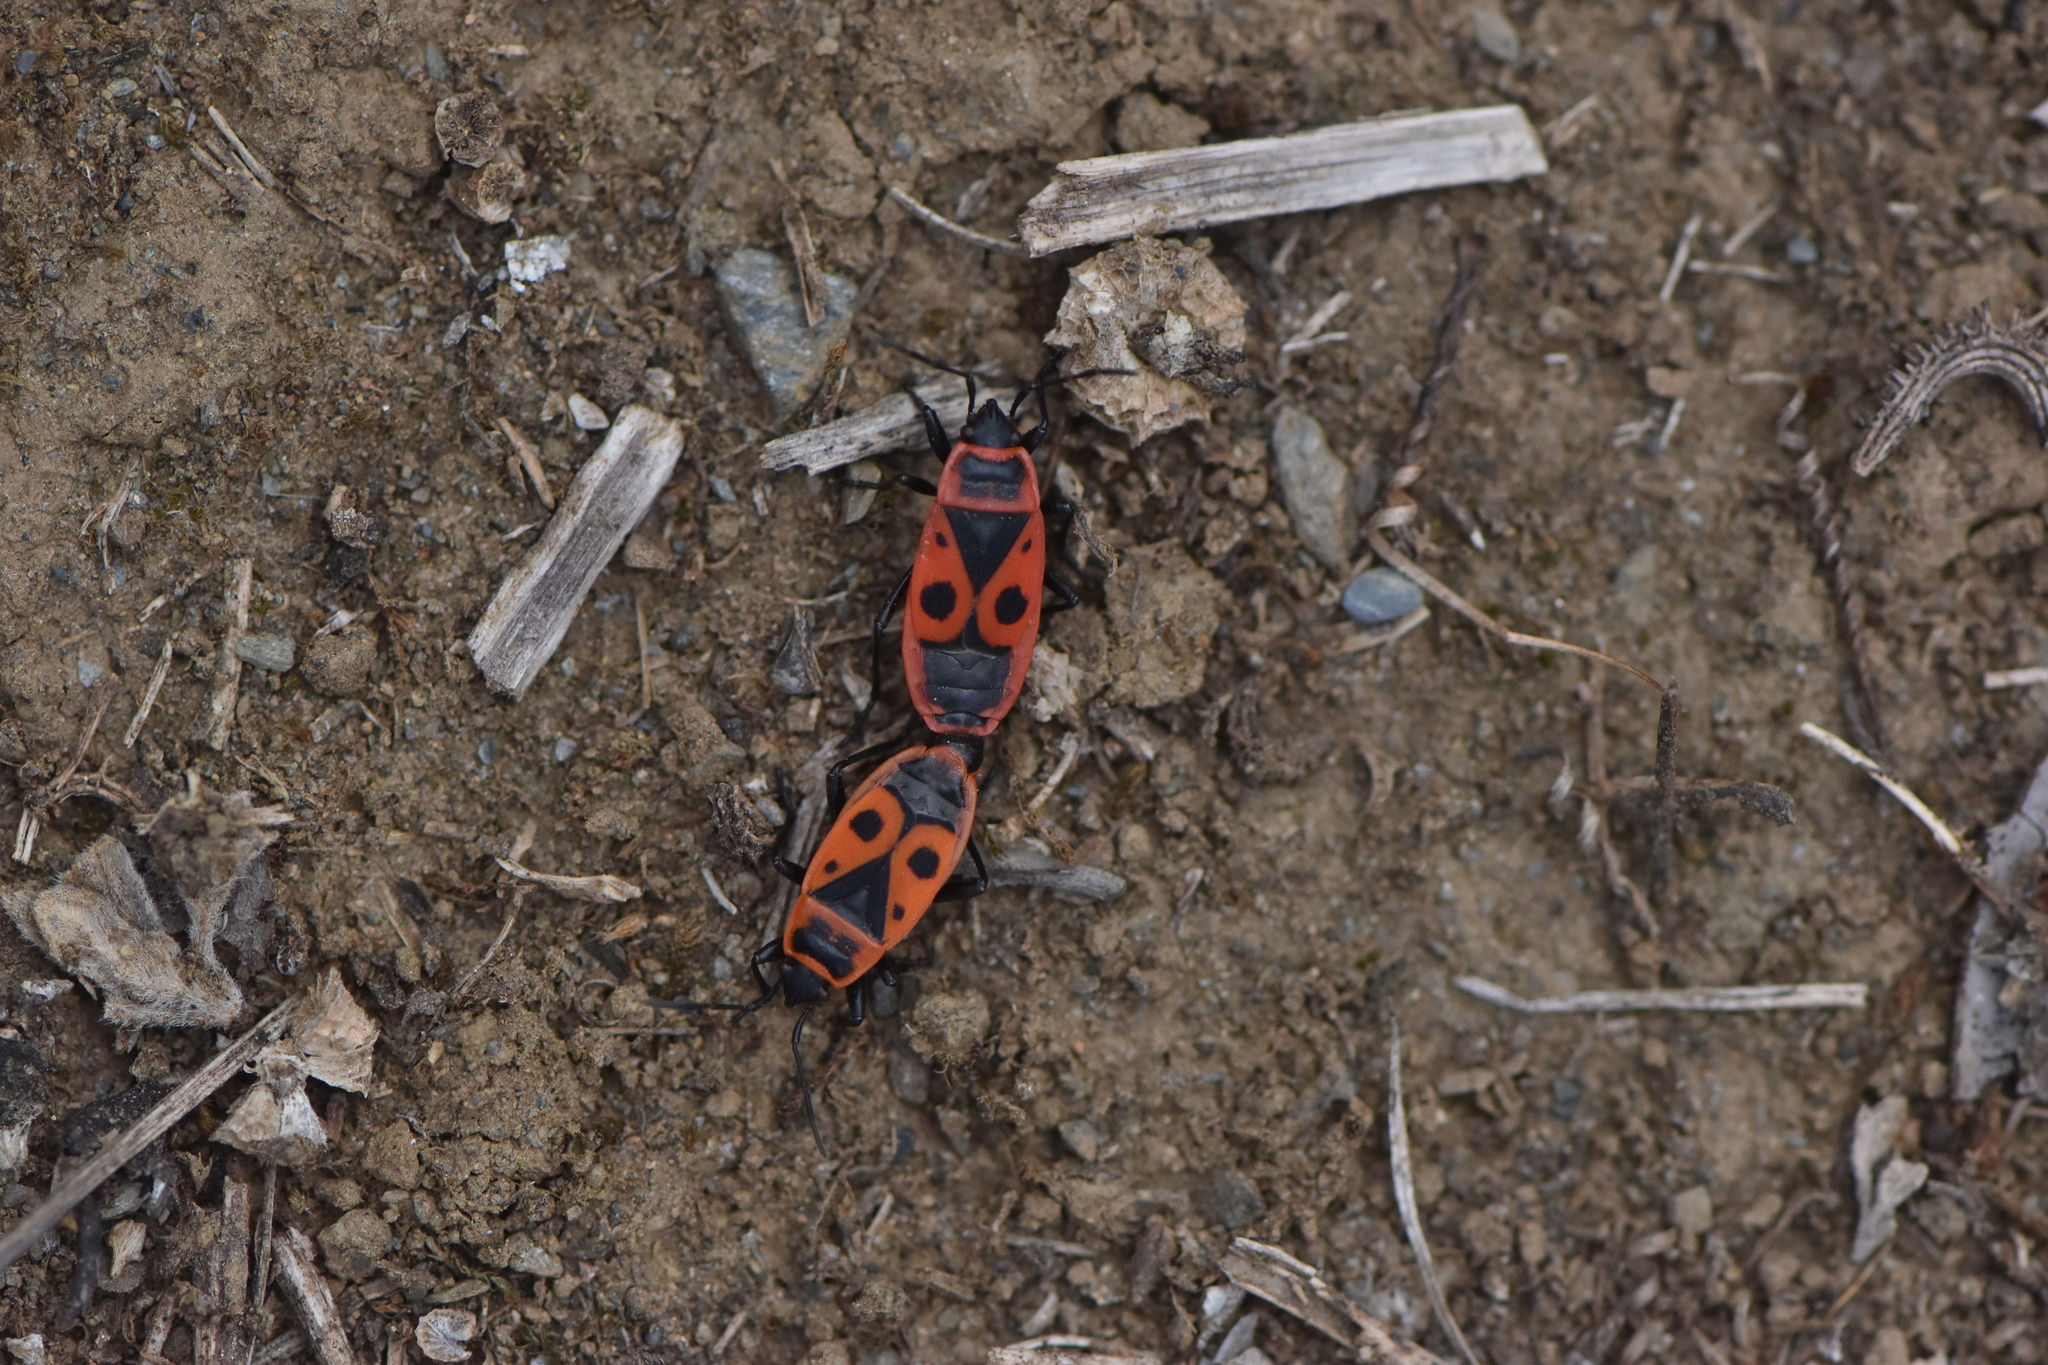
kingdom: Animalia
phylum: Arthropoda
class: Insecta
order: Hemiptera
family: Pyrrhocoridae
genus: Pyrrhocoris
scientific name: Pyrrhocoris apterus
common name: Firebug
